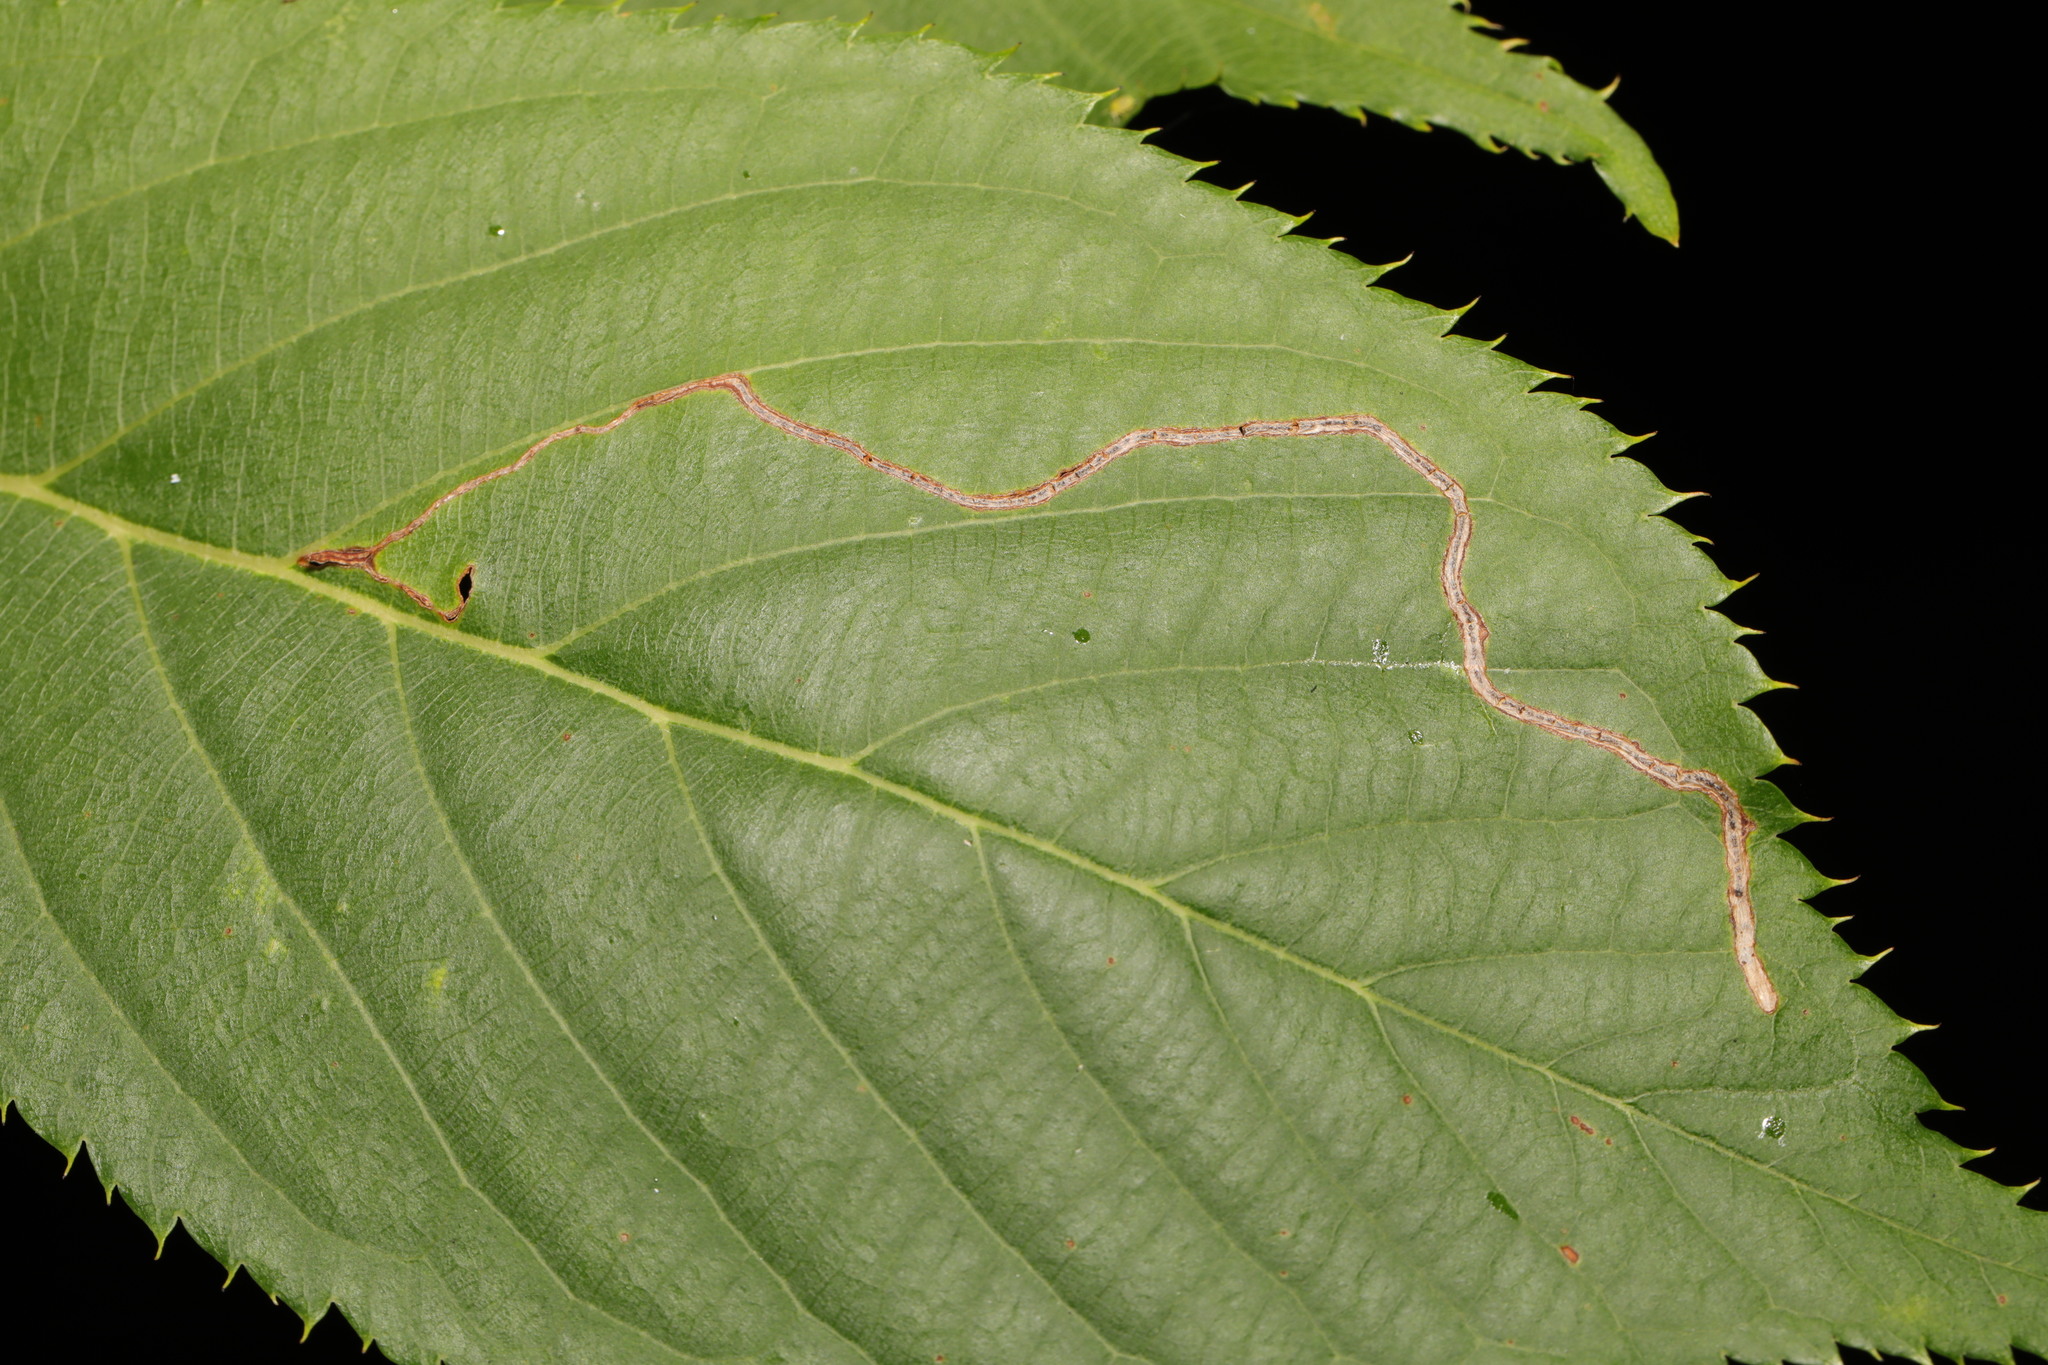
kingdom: Animalia
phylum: Arthropoda
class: Insecta
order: Lepidoptera
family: Lyonetiidae
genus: Lyonetia
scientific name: Lyonetia clerkella
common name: Apple leaf miner
